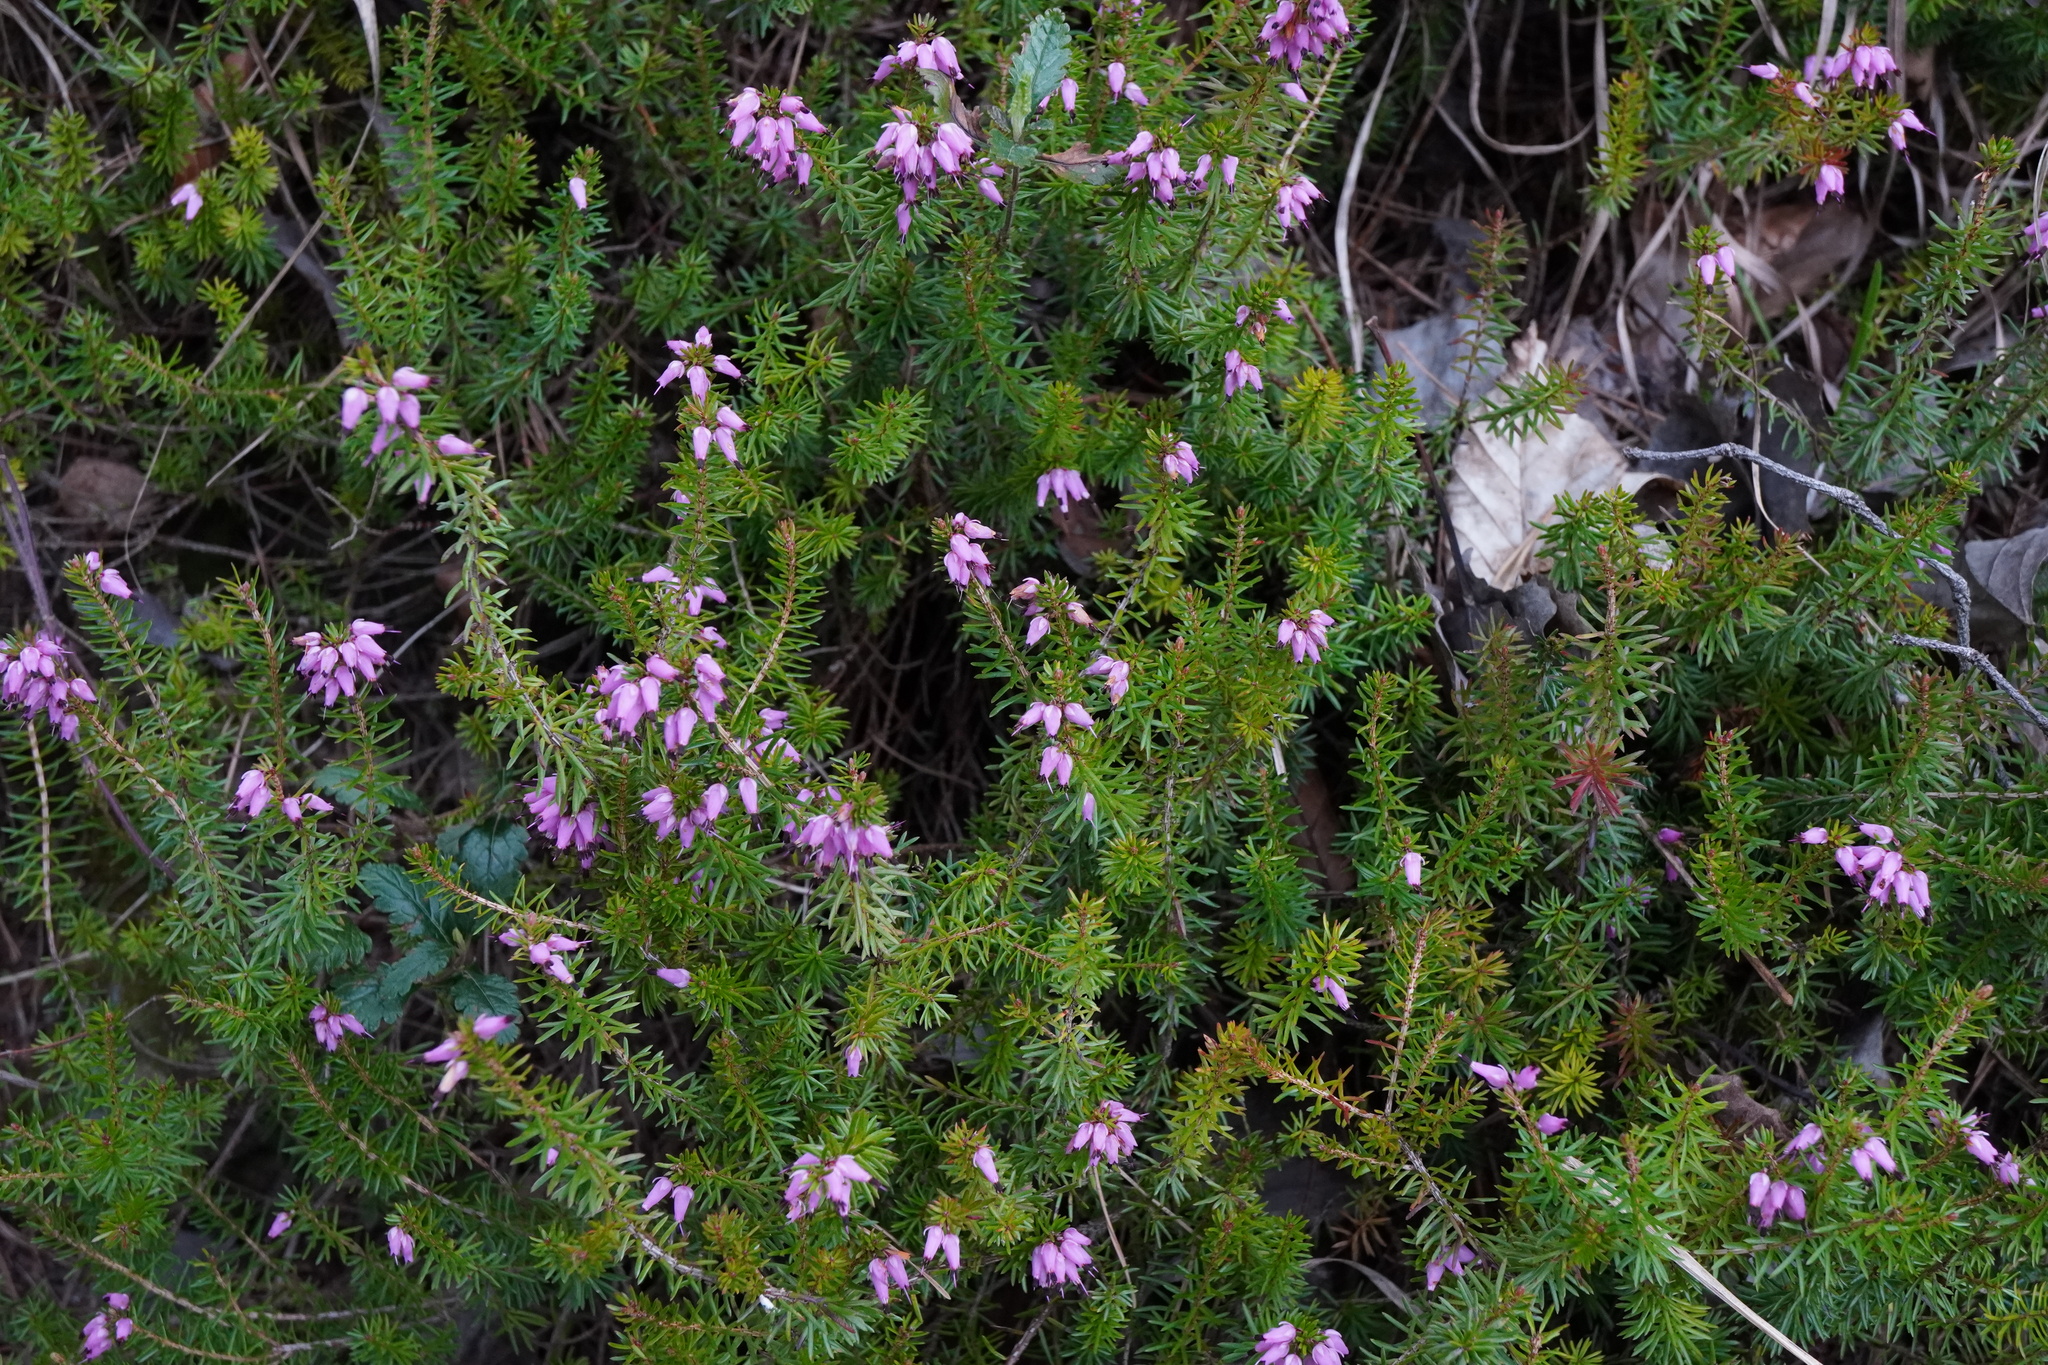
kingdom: Plantae
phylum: Tracheophyta
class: Magnoliopsida
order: Ericales
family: Ericaceae
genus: Erica
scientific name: Erica carnea
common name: Winter heath
